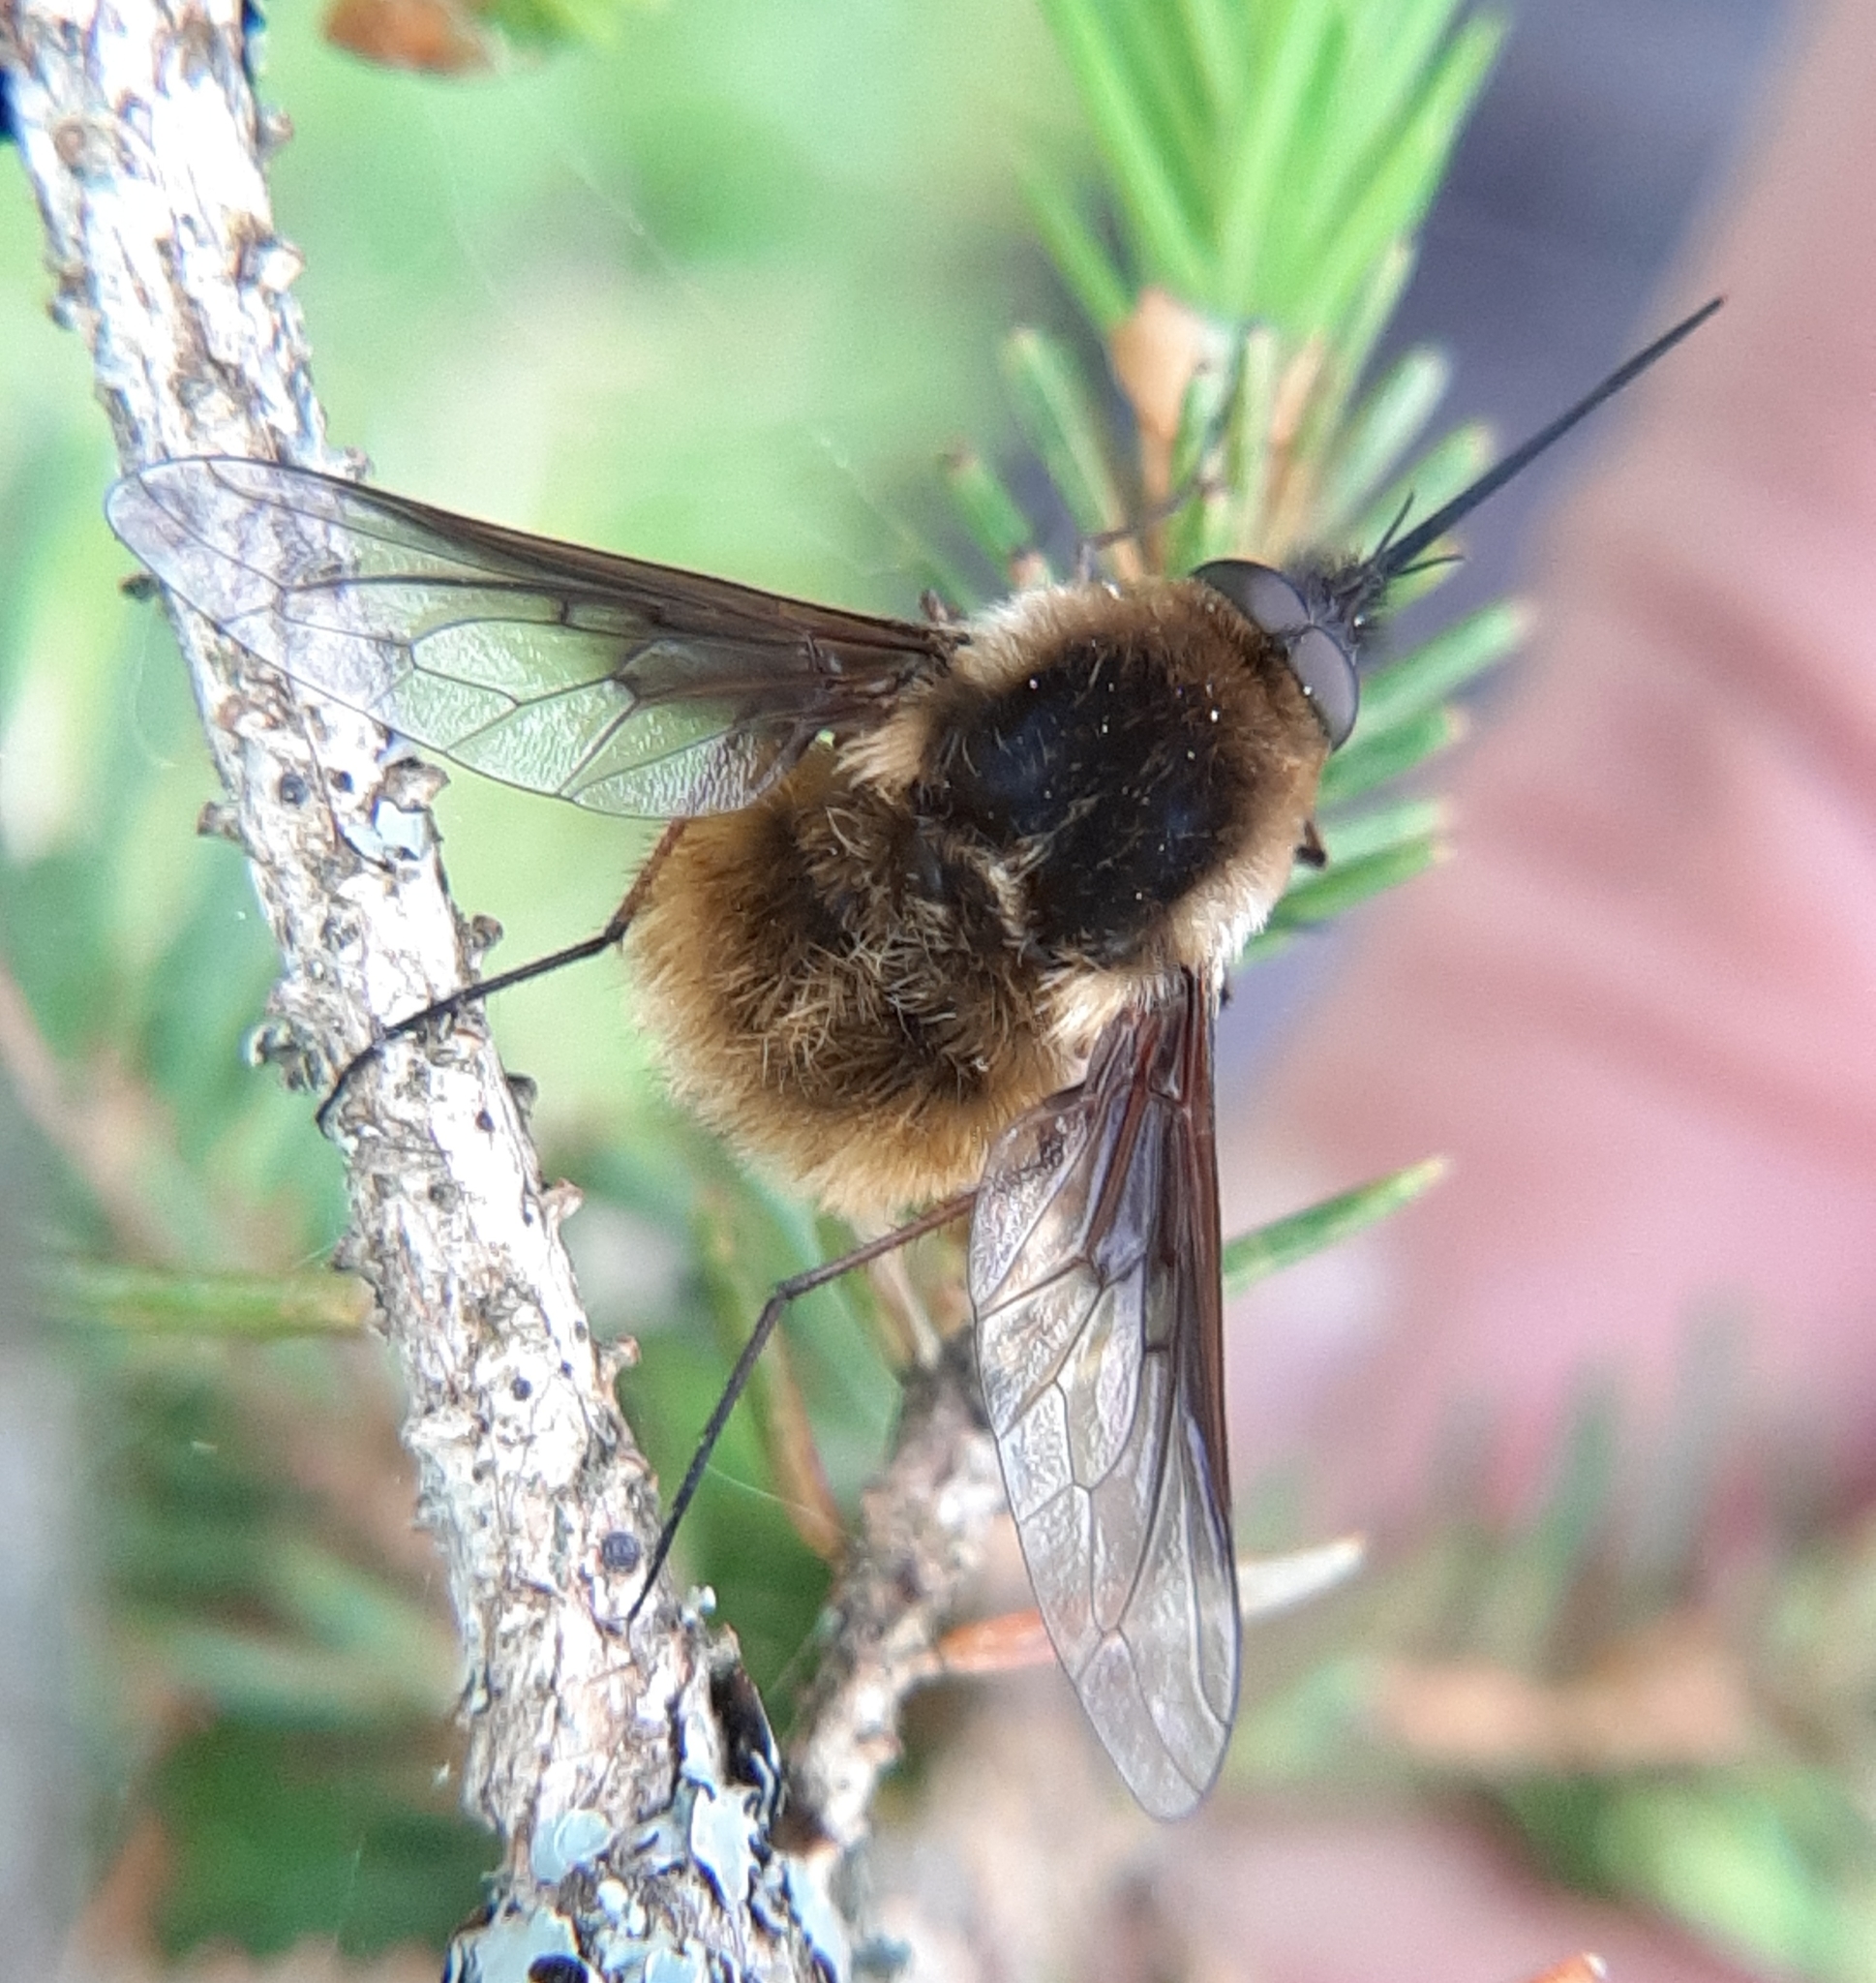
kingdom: Animalia
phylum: Arthropoda
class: Insecta
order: Diptera
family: Bombyliidae
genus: Bombylius
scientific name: Bombylius mexicanus
